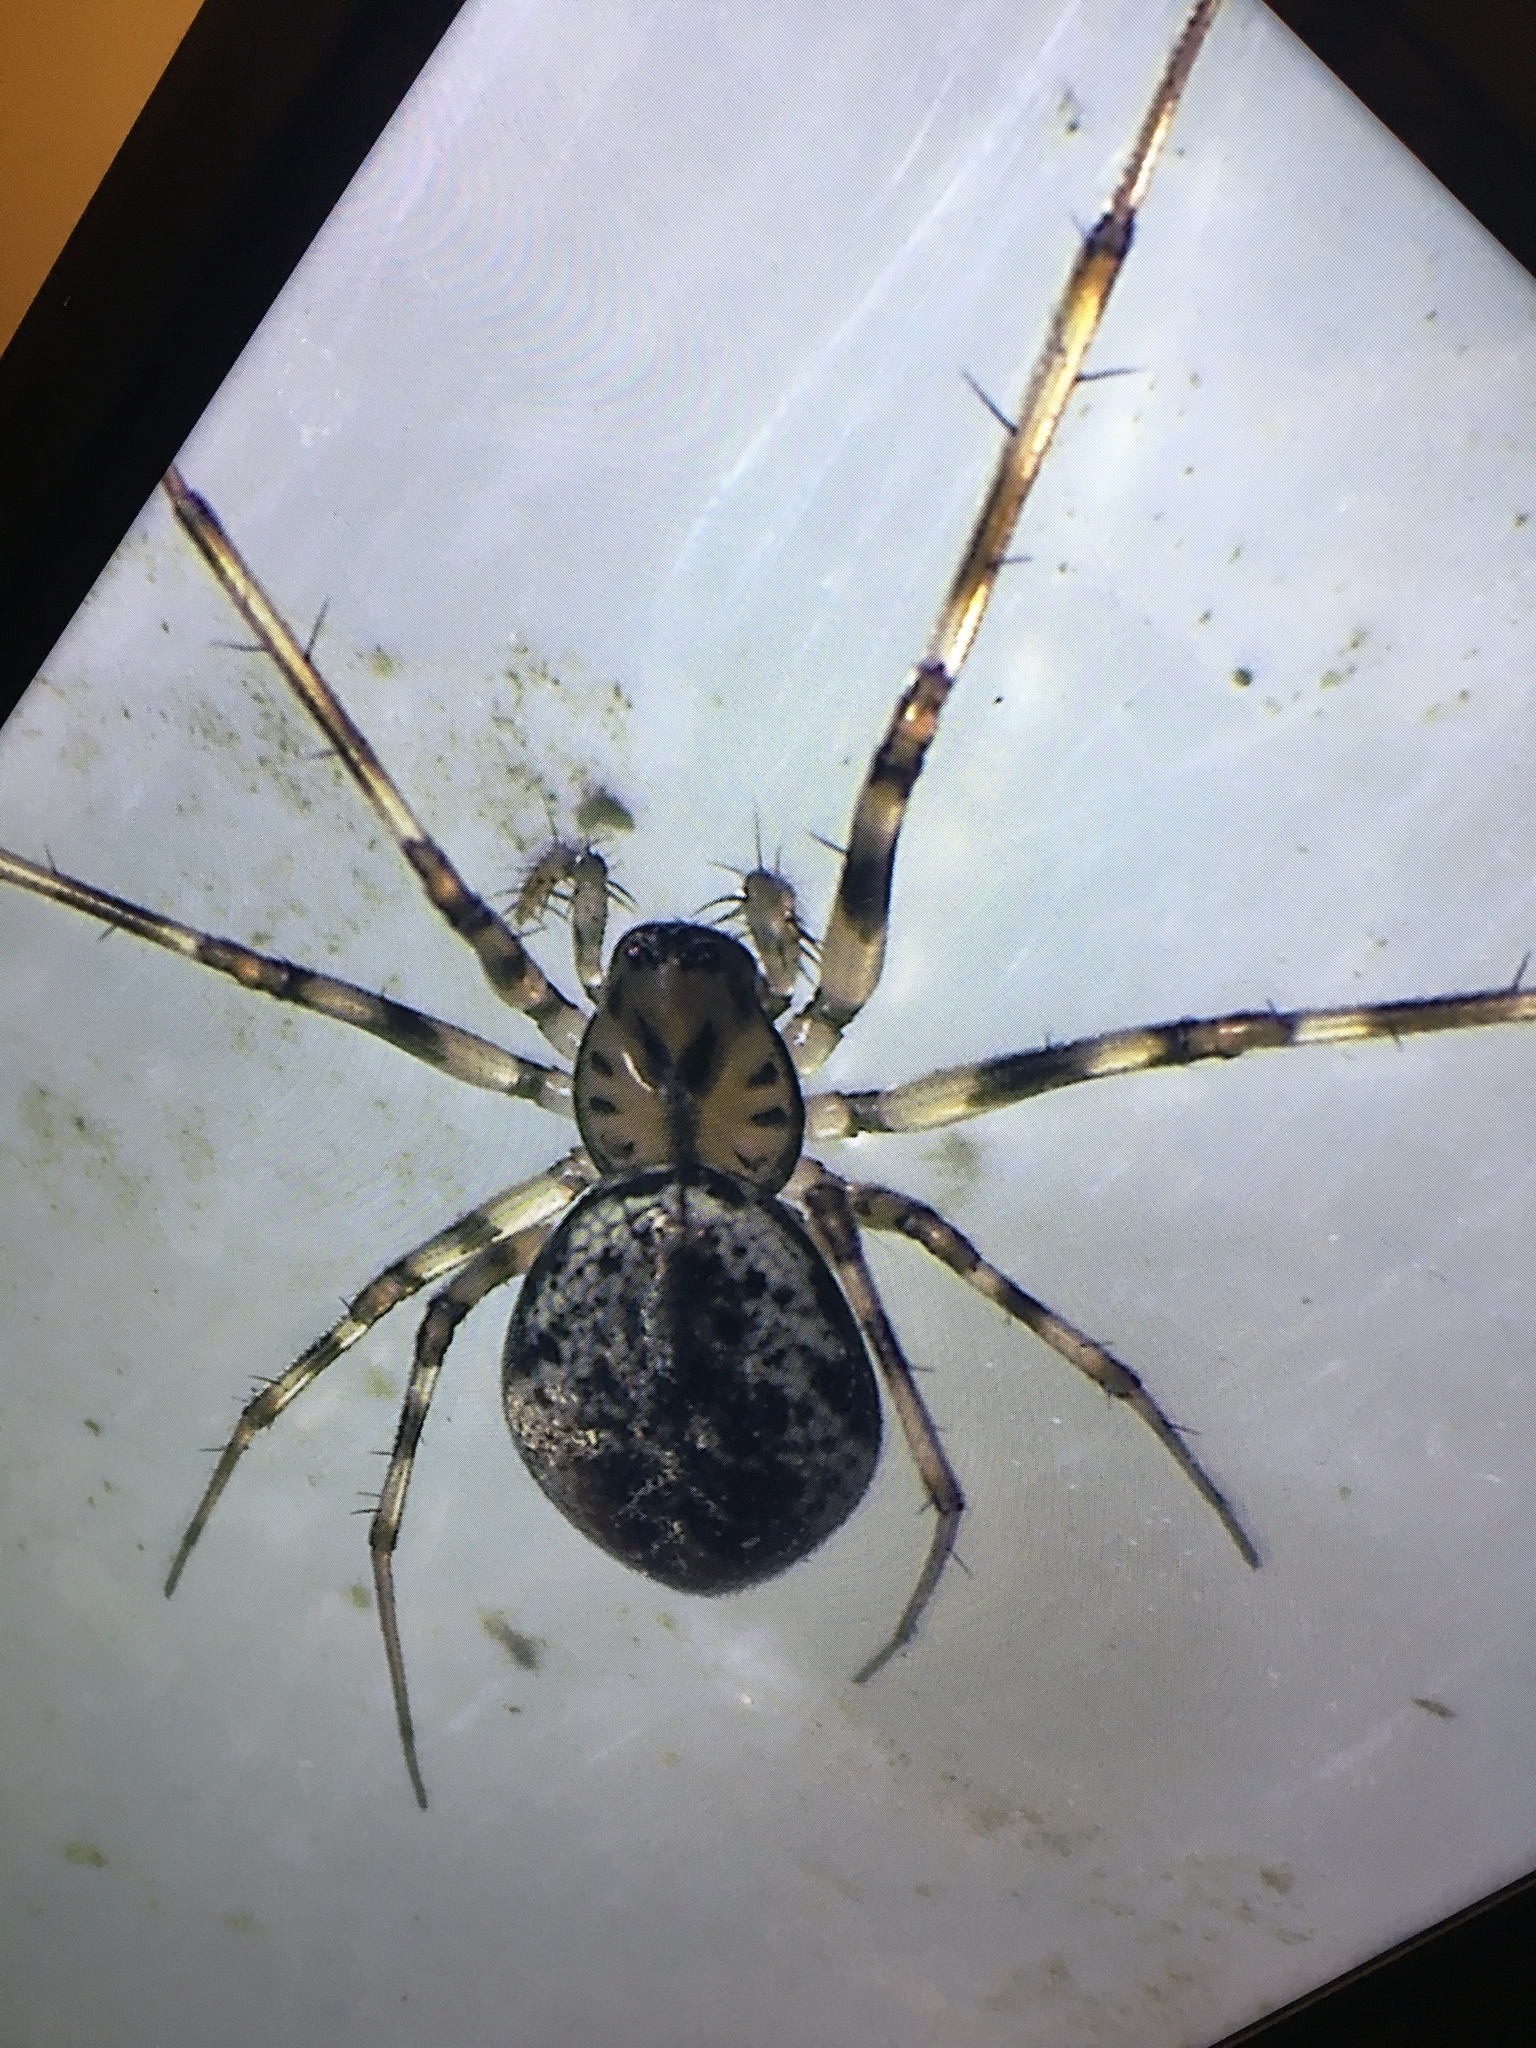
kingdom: Animalia
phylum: Arthropoda
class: Arachnida
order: Araneae
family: Linyphiidae
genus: Drapetisca
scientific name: Drapetisca alteranda
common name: Northern long-toothed sheetweaver
